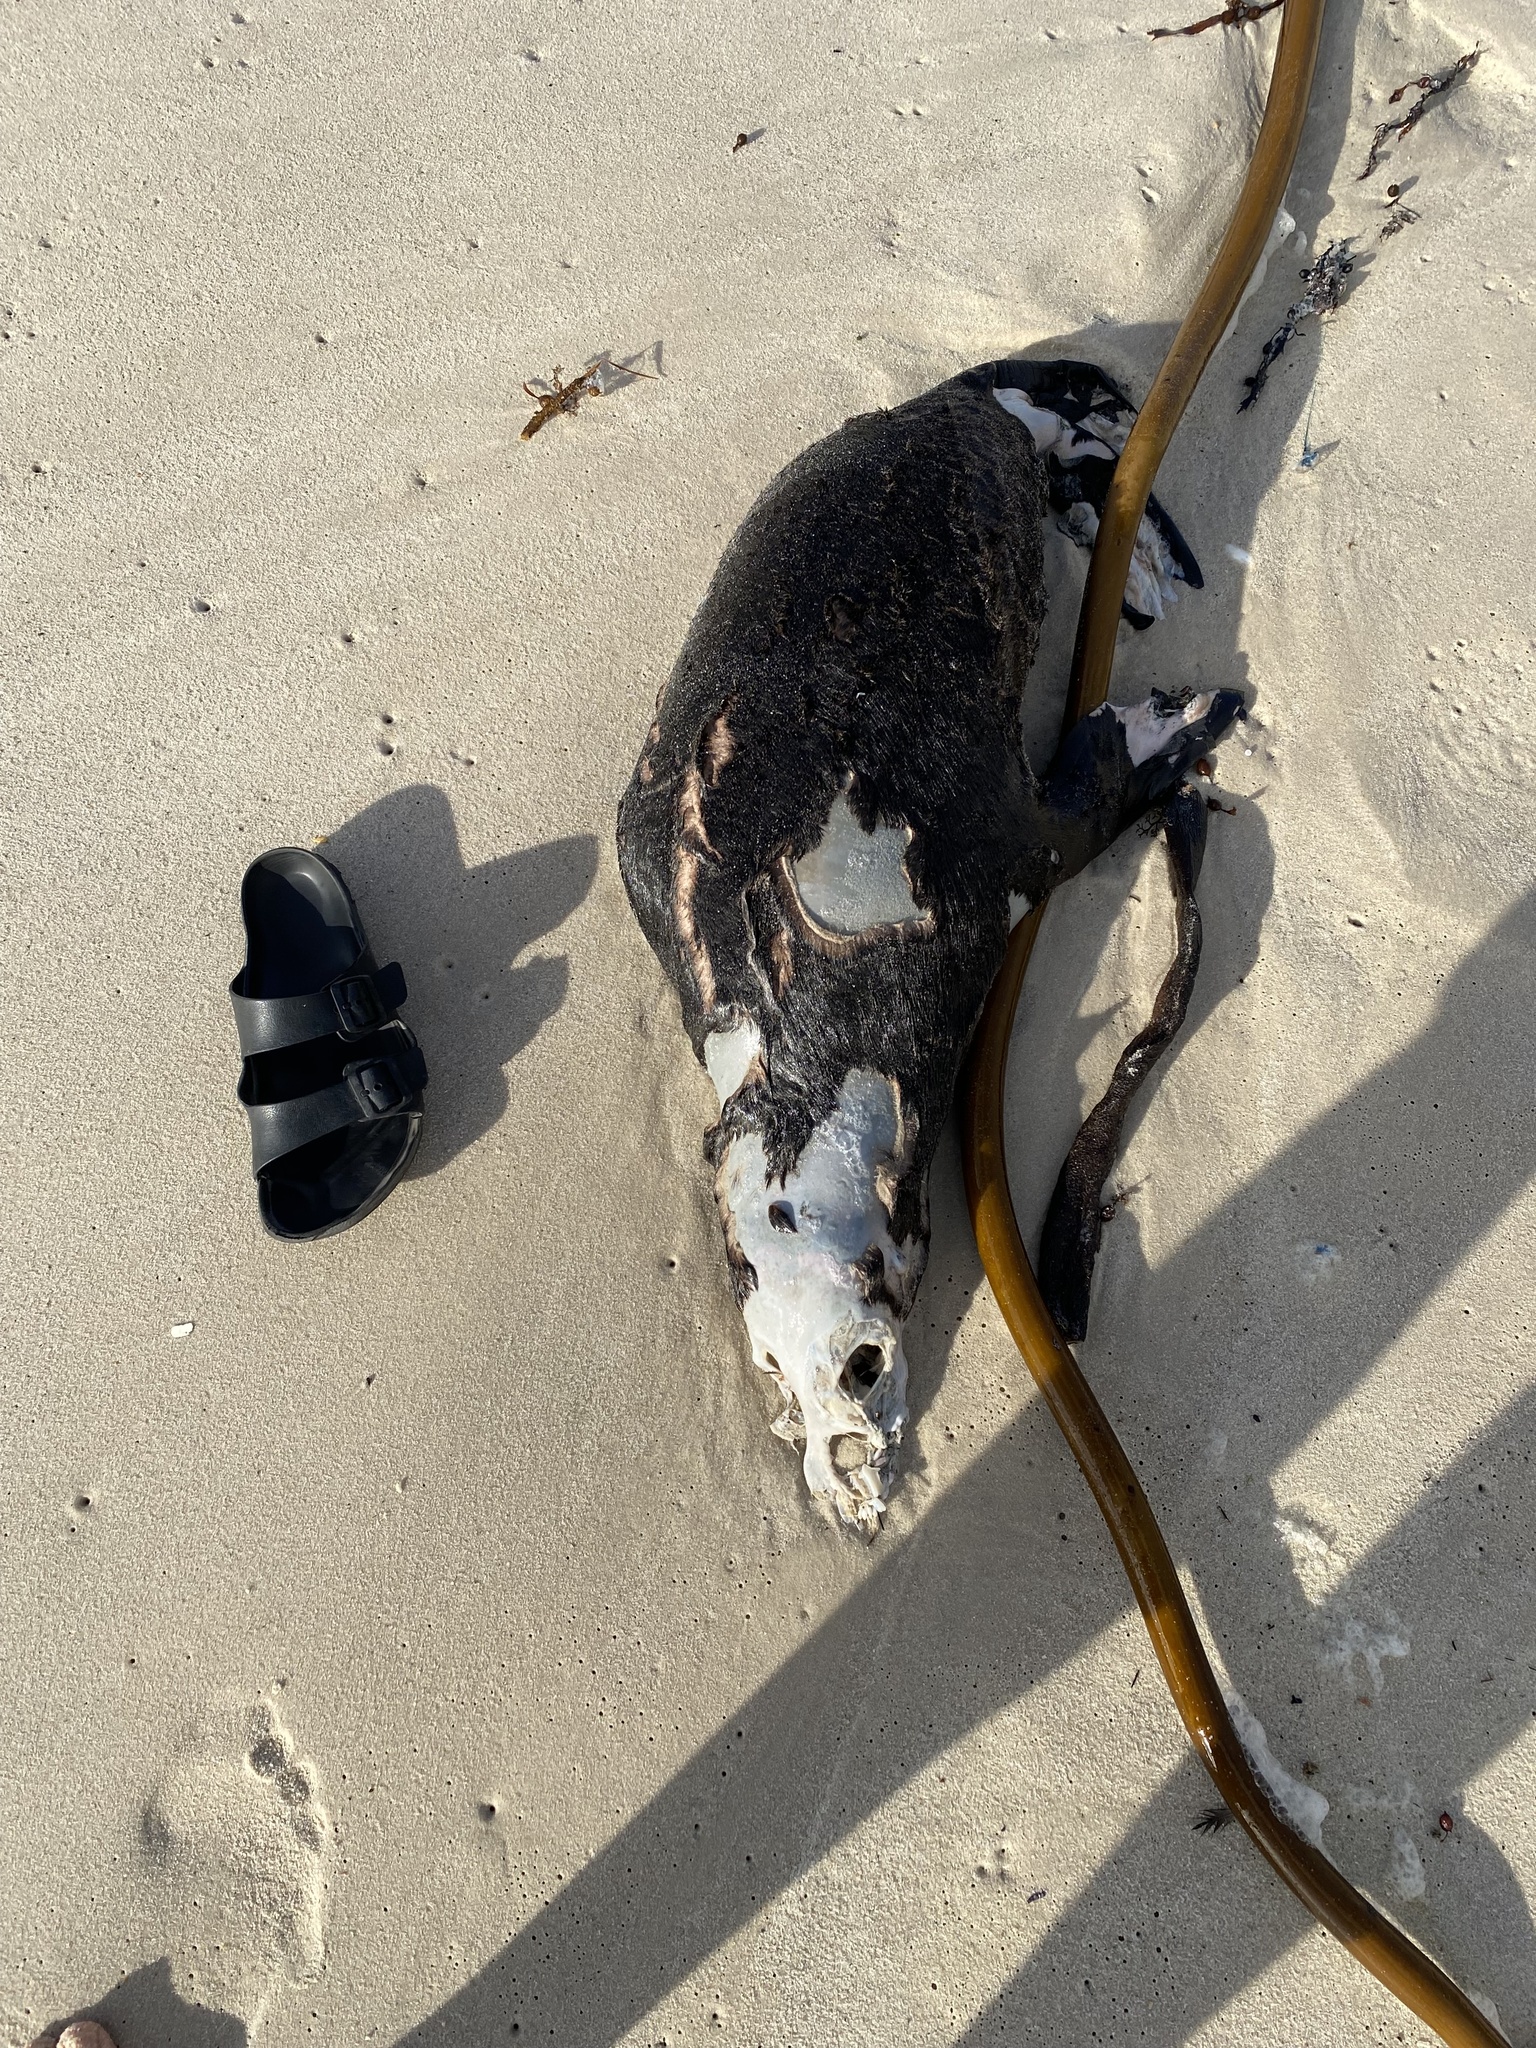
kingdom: Animalia
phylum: Chordata
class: Mammalia
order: Carnivora
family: Otariidae
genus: Arctocephalus
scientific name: Arctocephalus pusillus
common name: Brown fur seal
